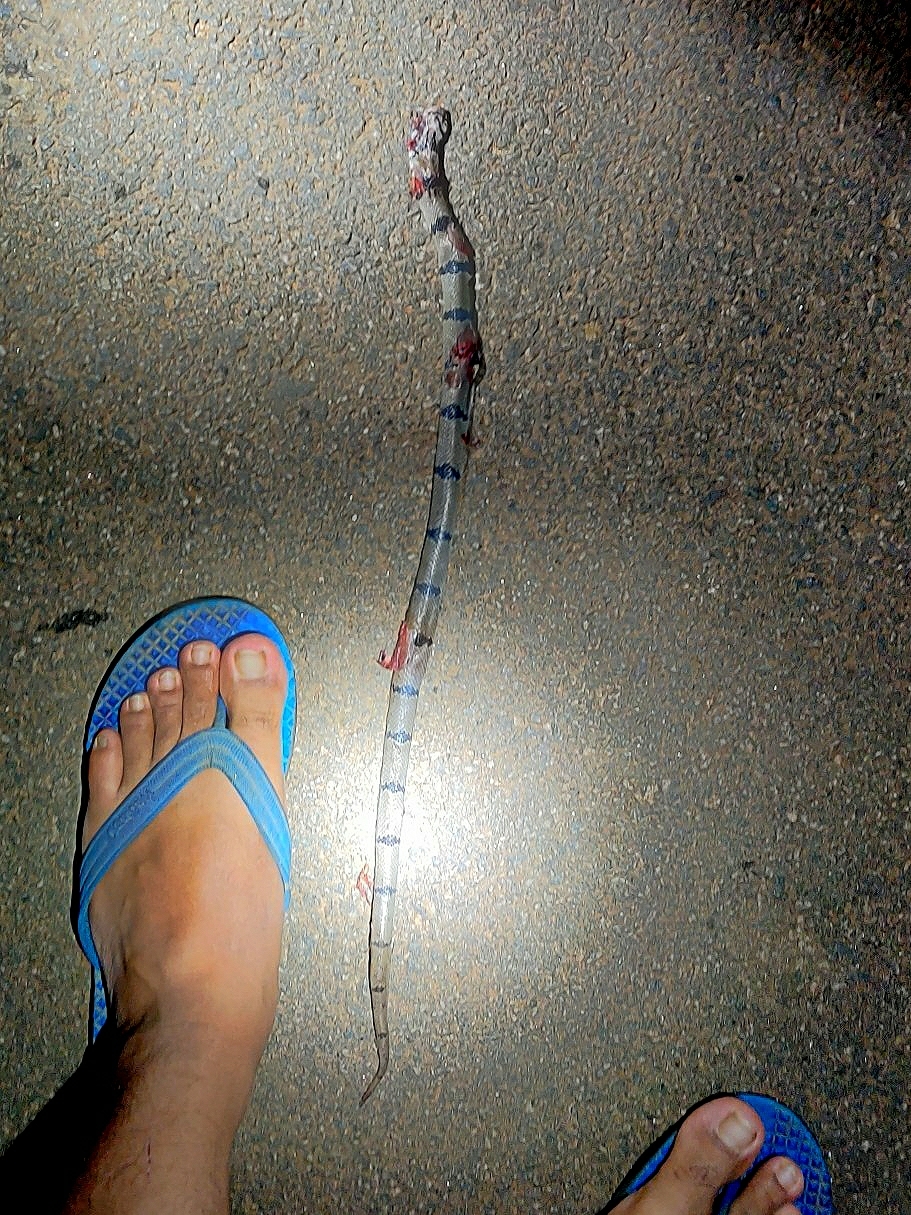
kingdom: Animalia
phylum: Chordata
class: Squamata
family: Colubridae
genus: Oligodon
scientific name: Oligodon arnensis
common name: Banded kukri
